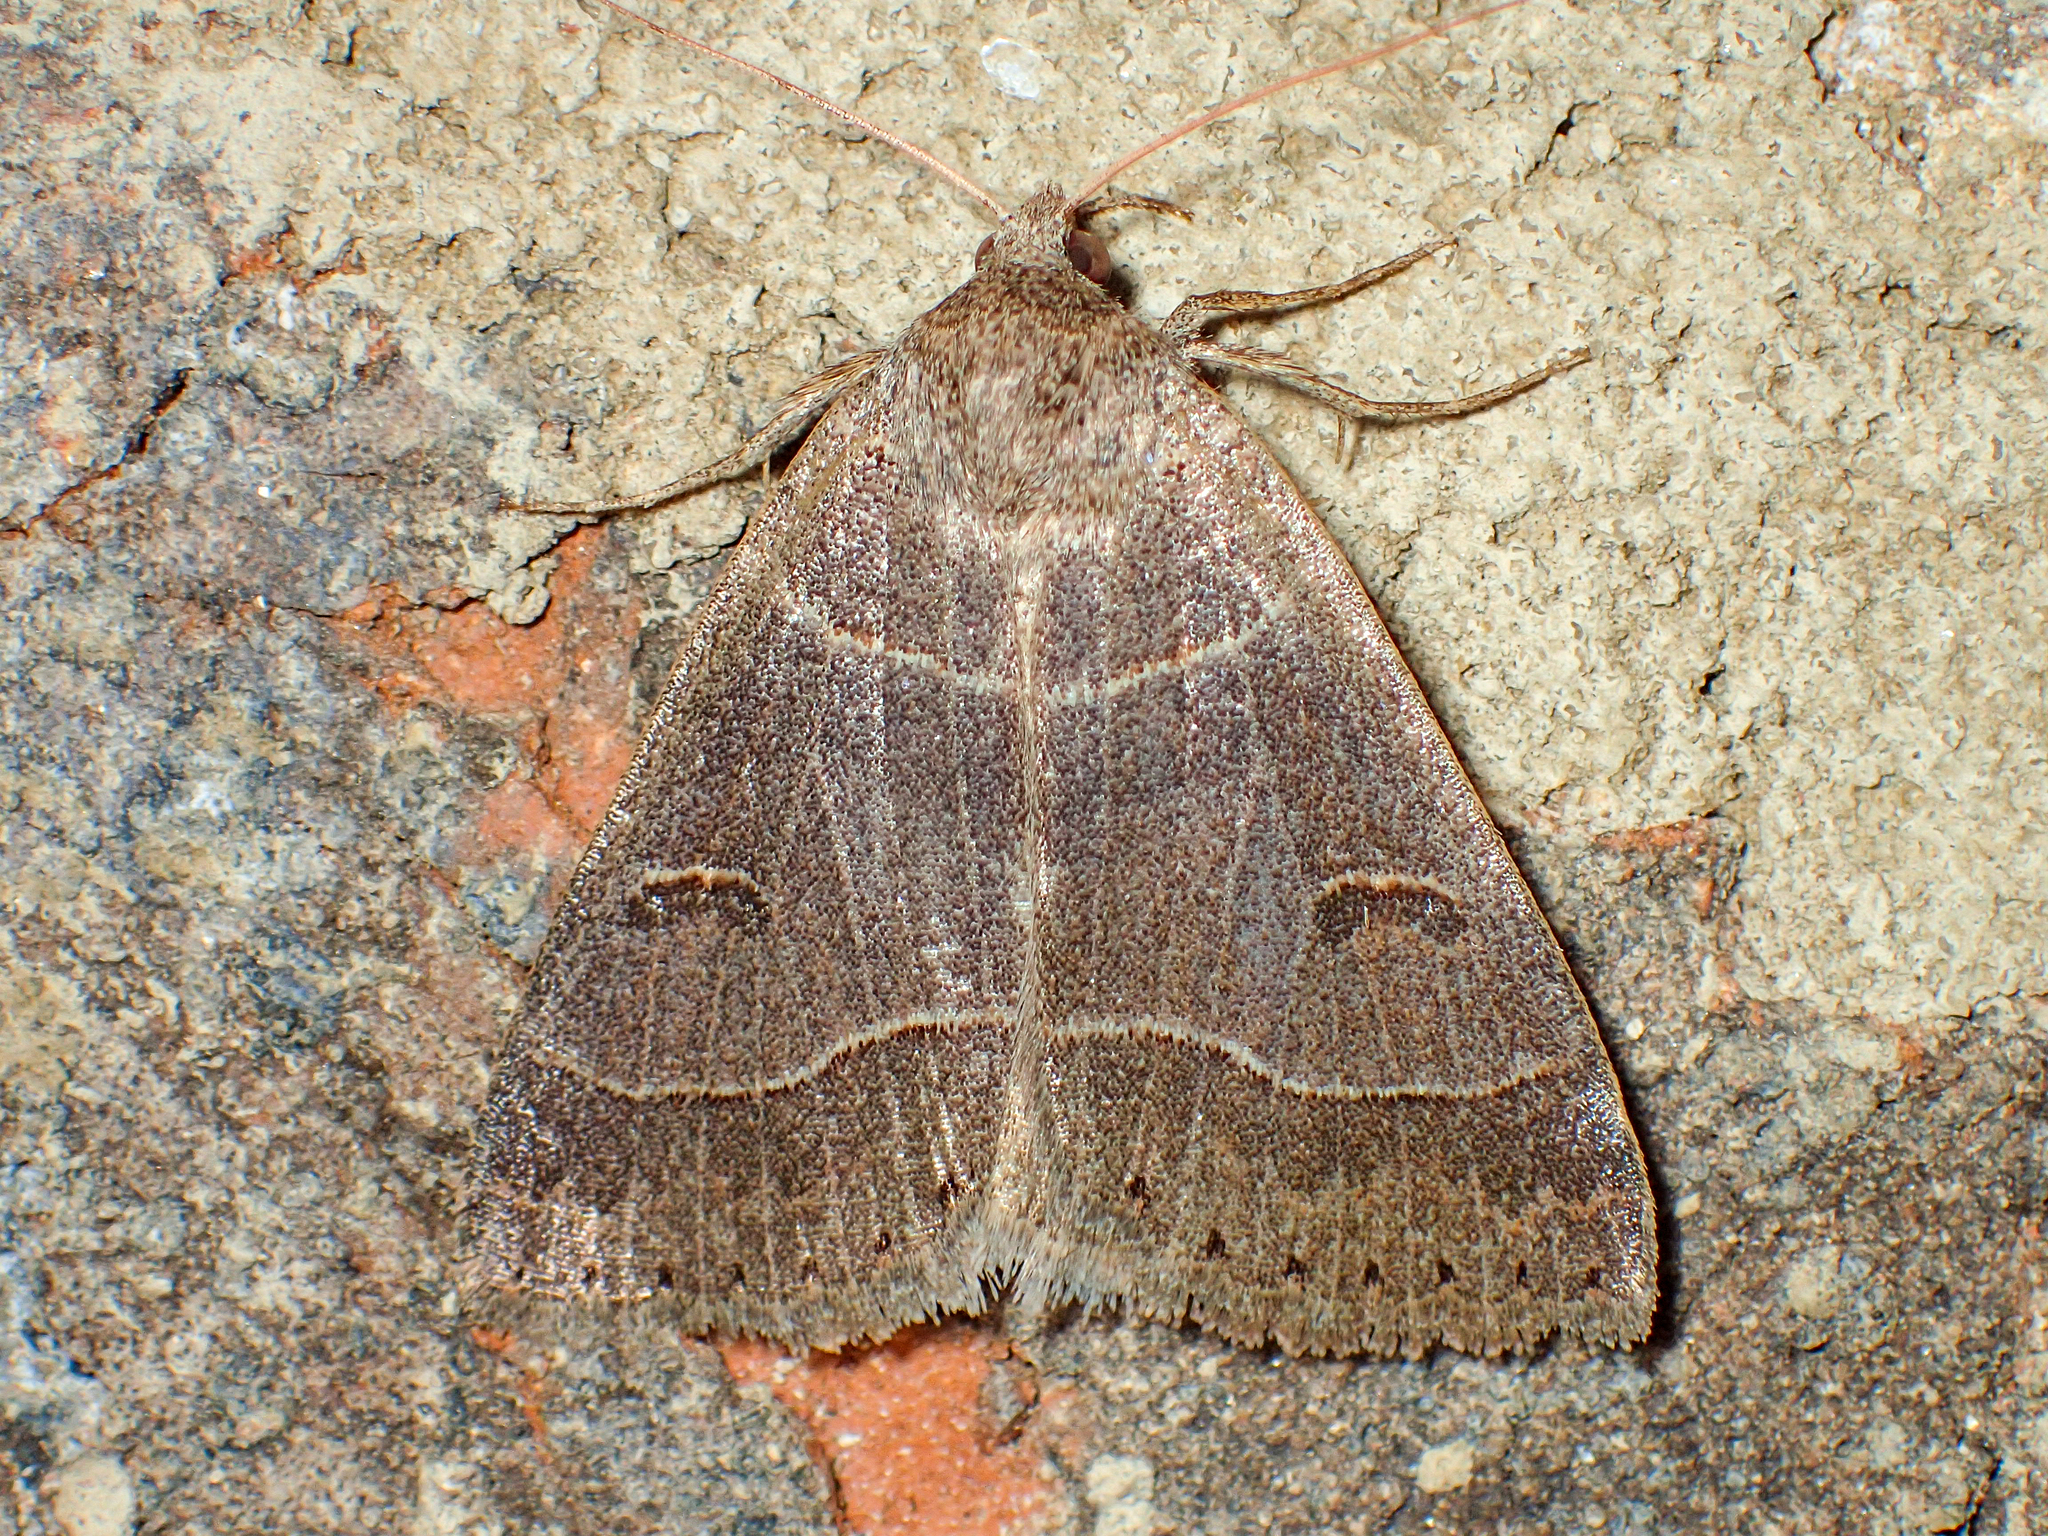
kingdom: Animalia
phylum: Arthropoda
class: Insecta
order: Lepidoptera
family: Erebidae
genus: Phoberia
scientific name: Phoberia atomaris
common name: Common oak moth
